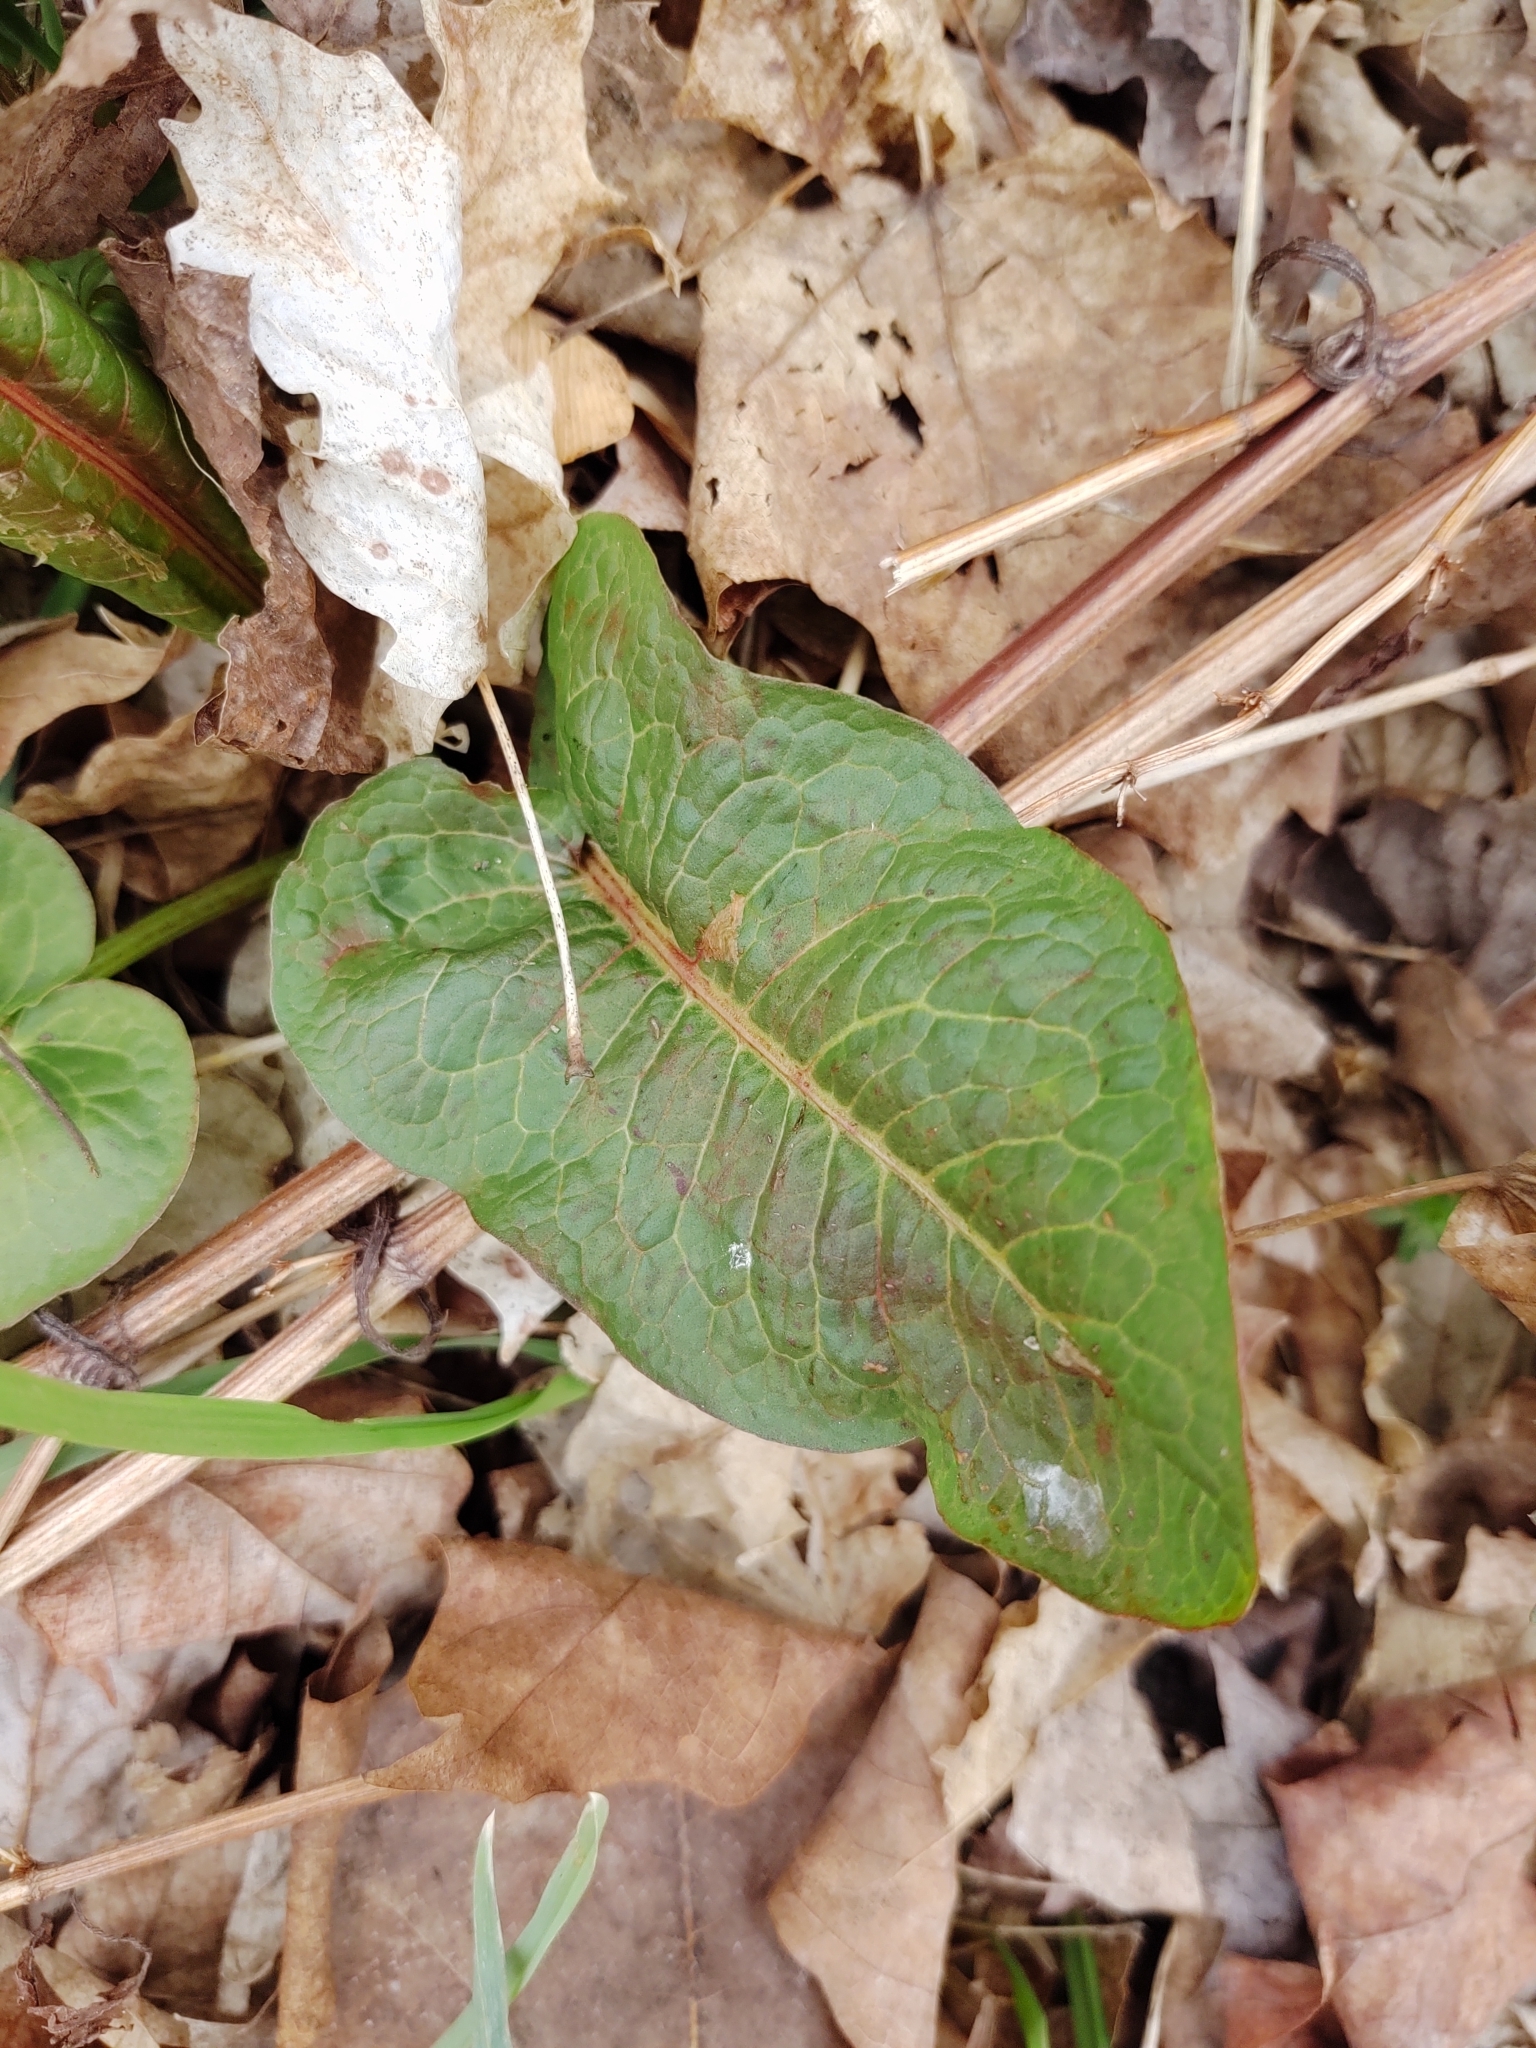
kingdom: Plantae
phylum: Tracheophyta
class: Magnoliopsida
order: Caryophyllales
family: Polygonaceae
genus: Rumex
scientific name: Rumex obtusifolius
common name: Bitter dock
